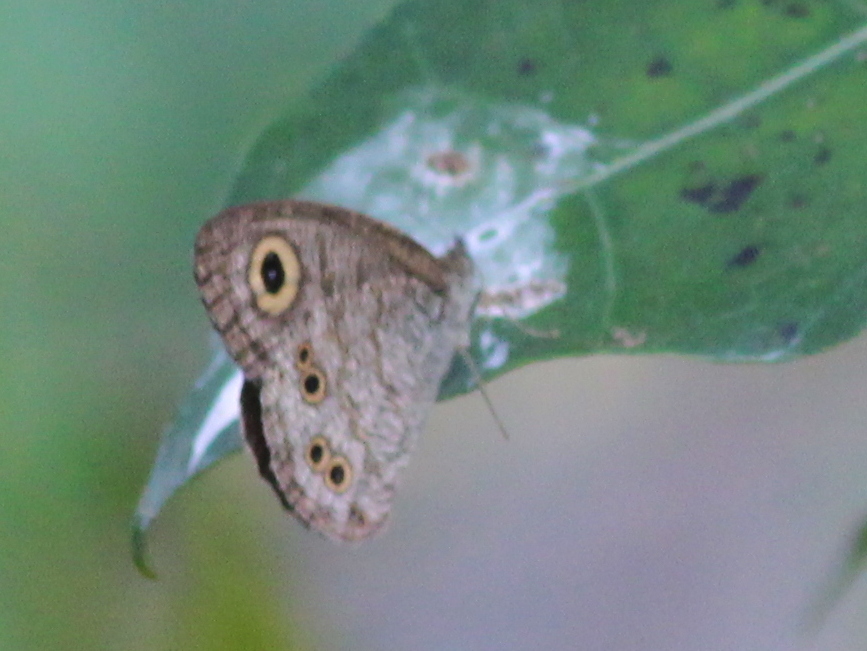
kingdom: Animalia
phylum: Arthropoda
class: Insecta
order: Lepidoptera
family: Nymphalidae
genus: Ypthima
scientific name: Ypthima baldus
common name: Common five-ring
